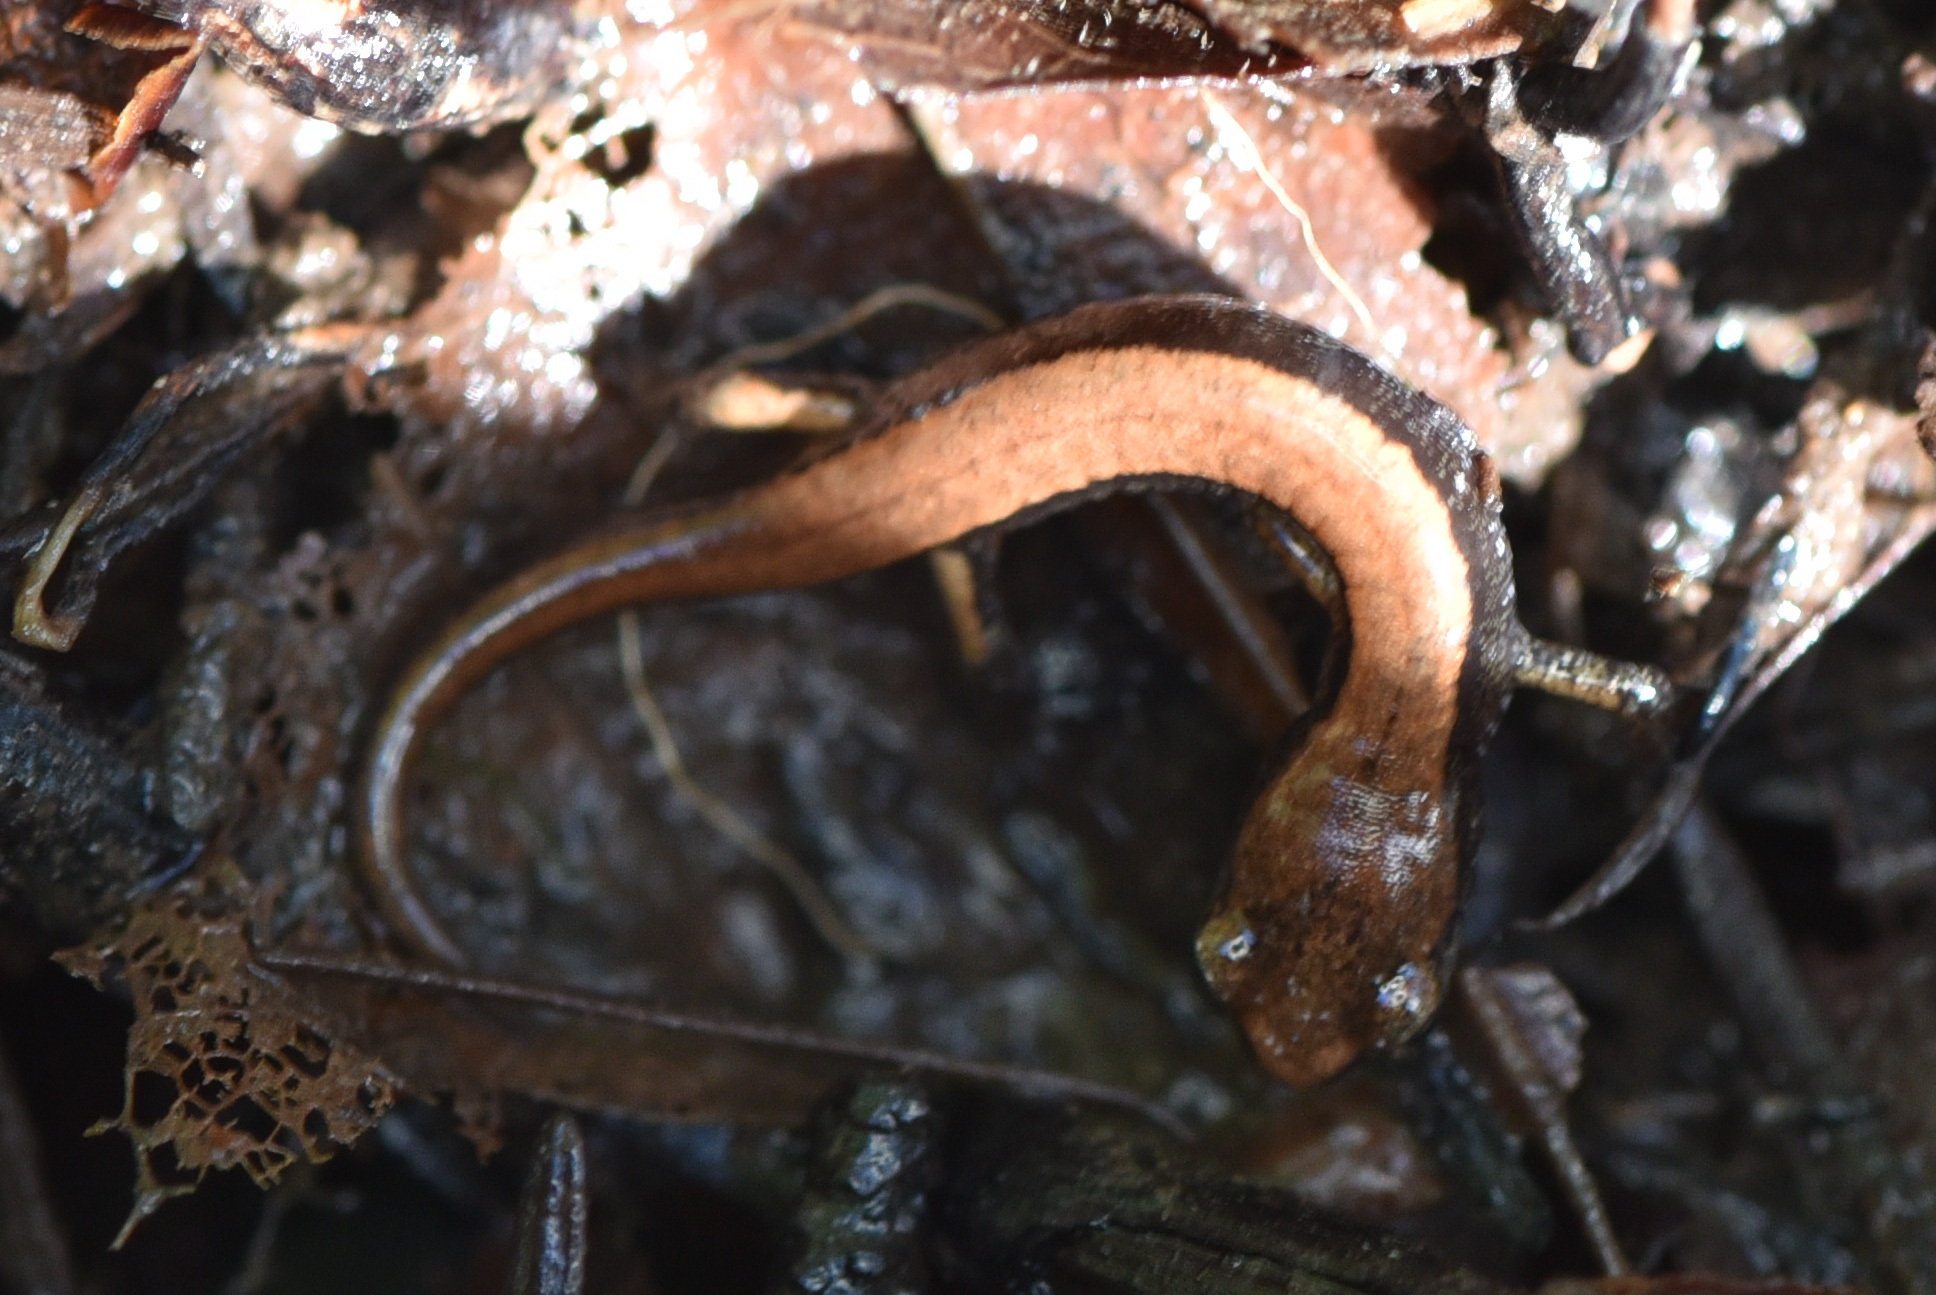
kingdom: Animalia
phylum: Chordata
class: Amphibia
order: Caudata
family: Plethodontidae
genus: Plethodon
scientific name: Plethodon vehiculum
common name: Western red-backed salamander
